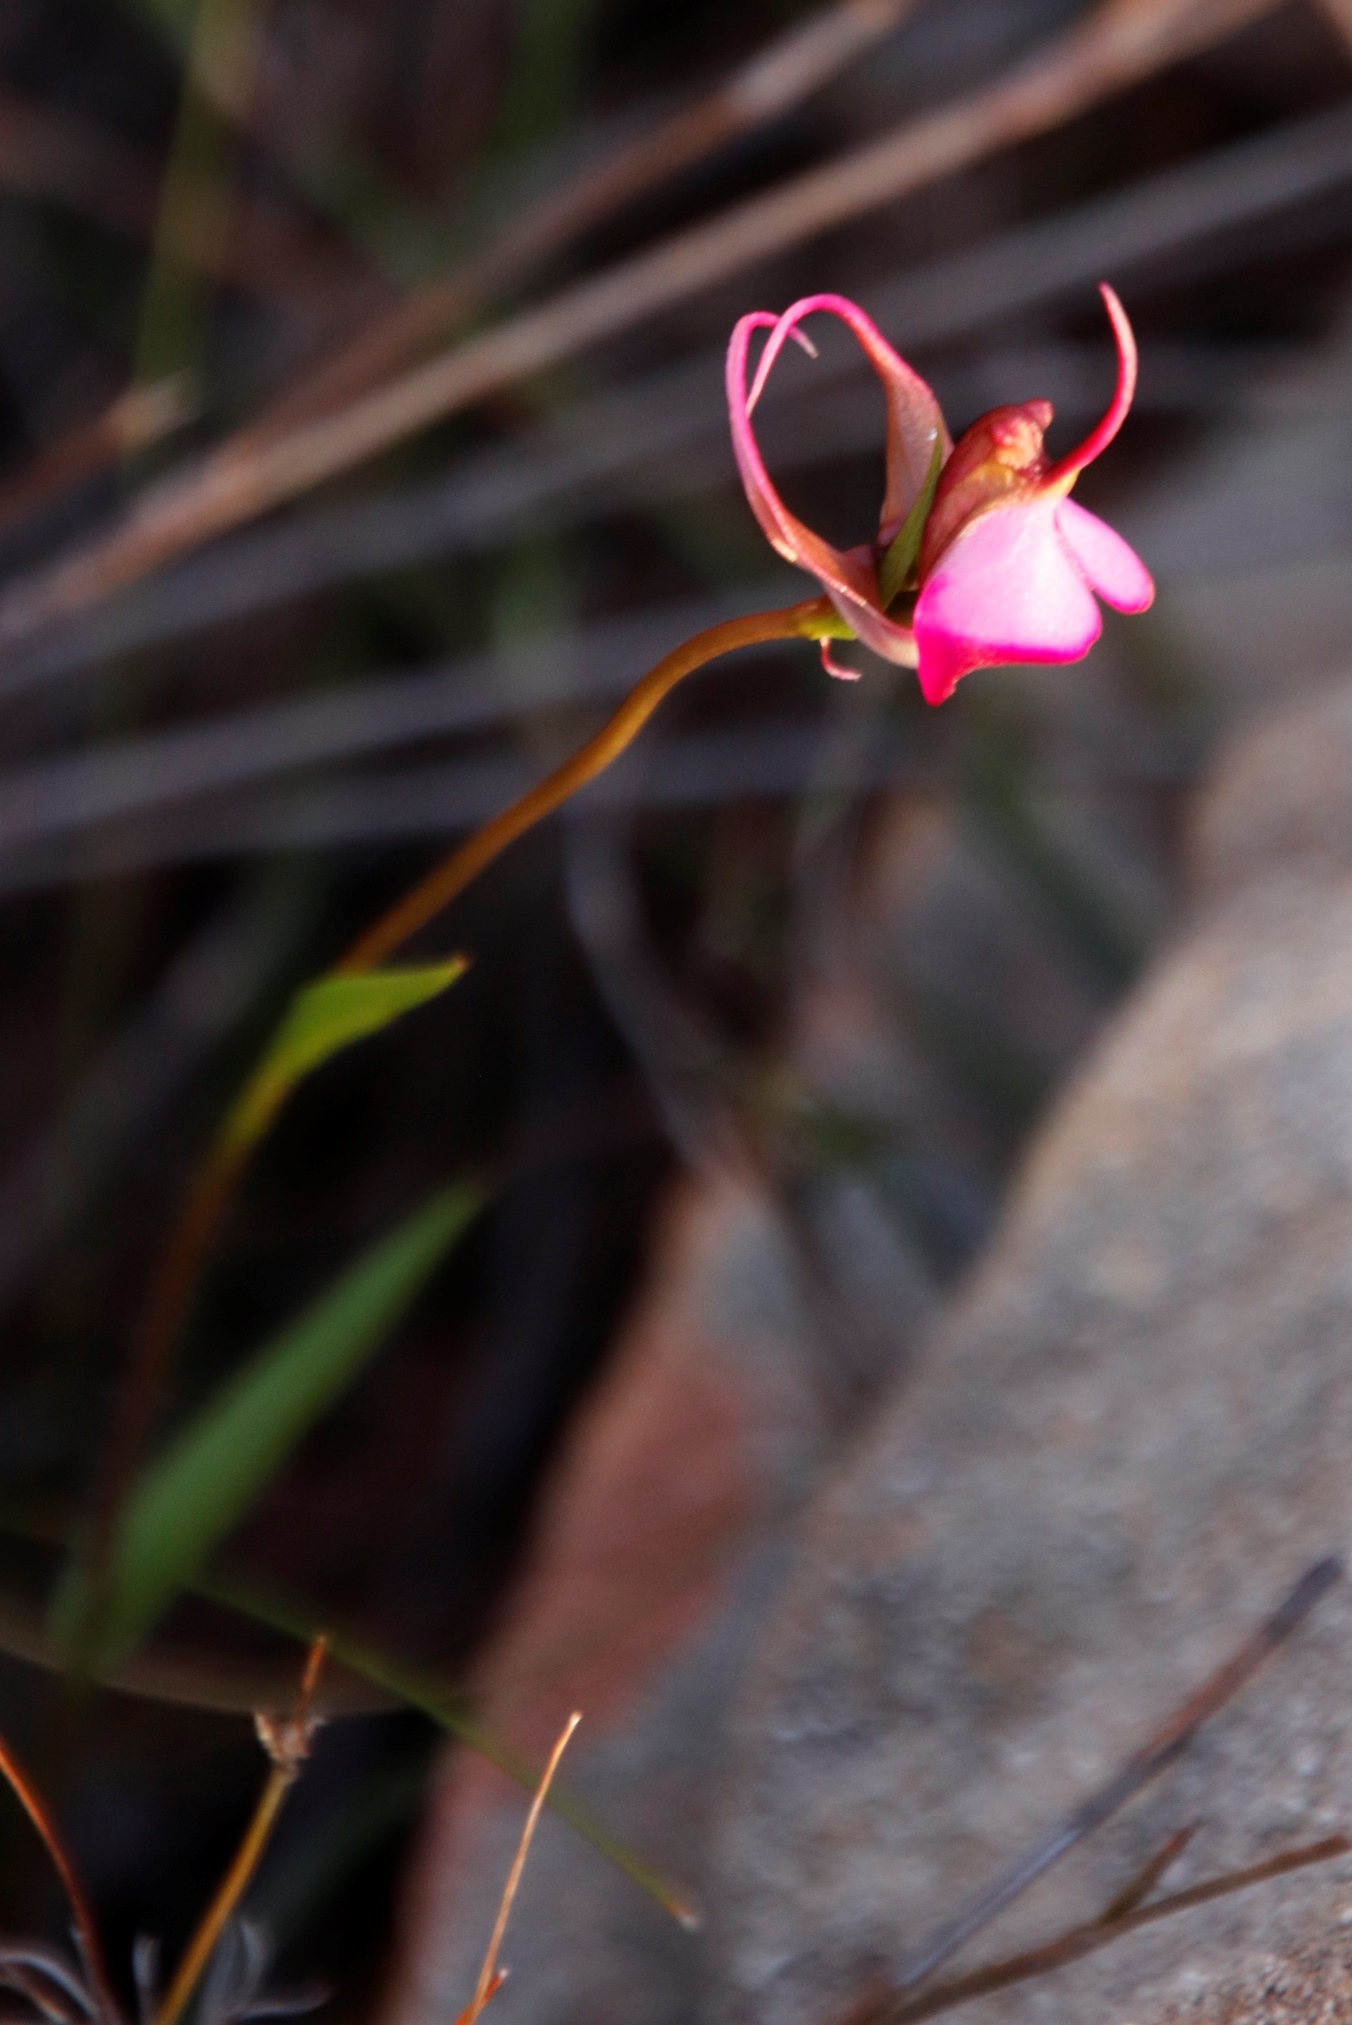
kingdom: Plantae
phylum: Tracheophyta
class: Liliopsida
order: Asparagales
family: Orchidaceae
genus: Disperis
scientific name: Disperis capensis
